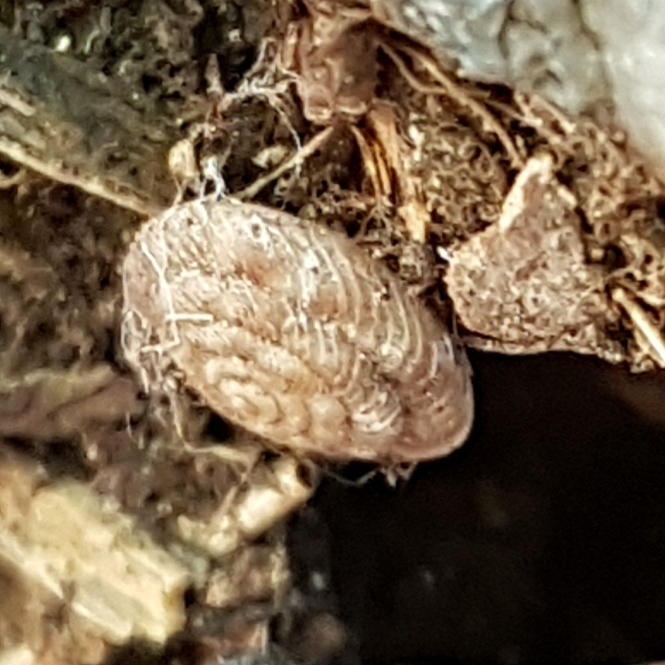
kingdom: Animalia
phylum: Mollusca
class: Gastropoda
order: Stylommatophora
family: Discidae
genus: Discus
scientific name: Discus rotundatus
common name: Rounded snail
